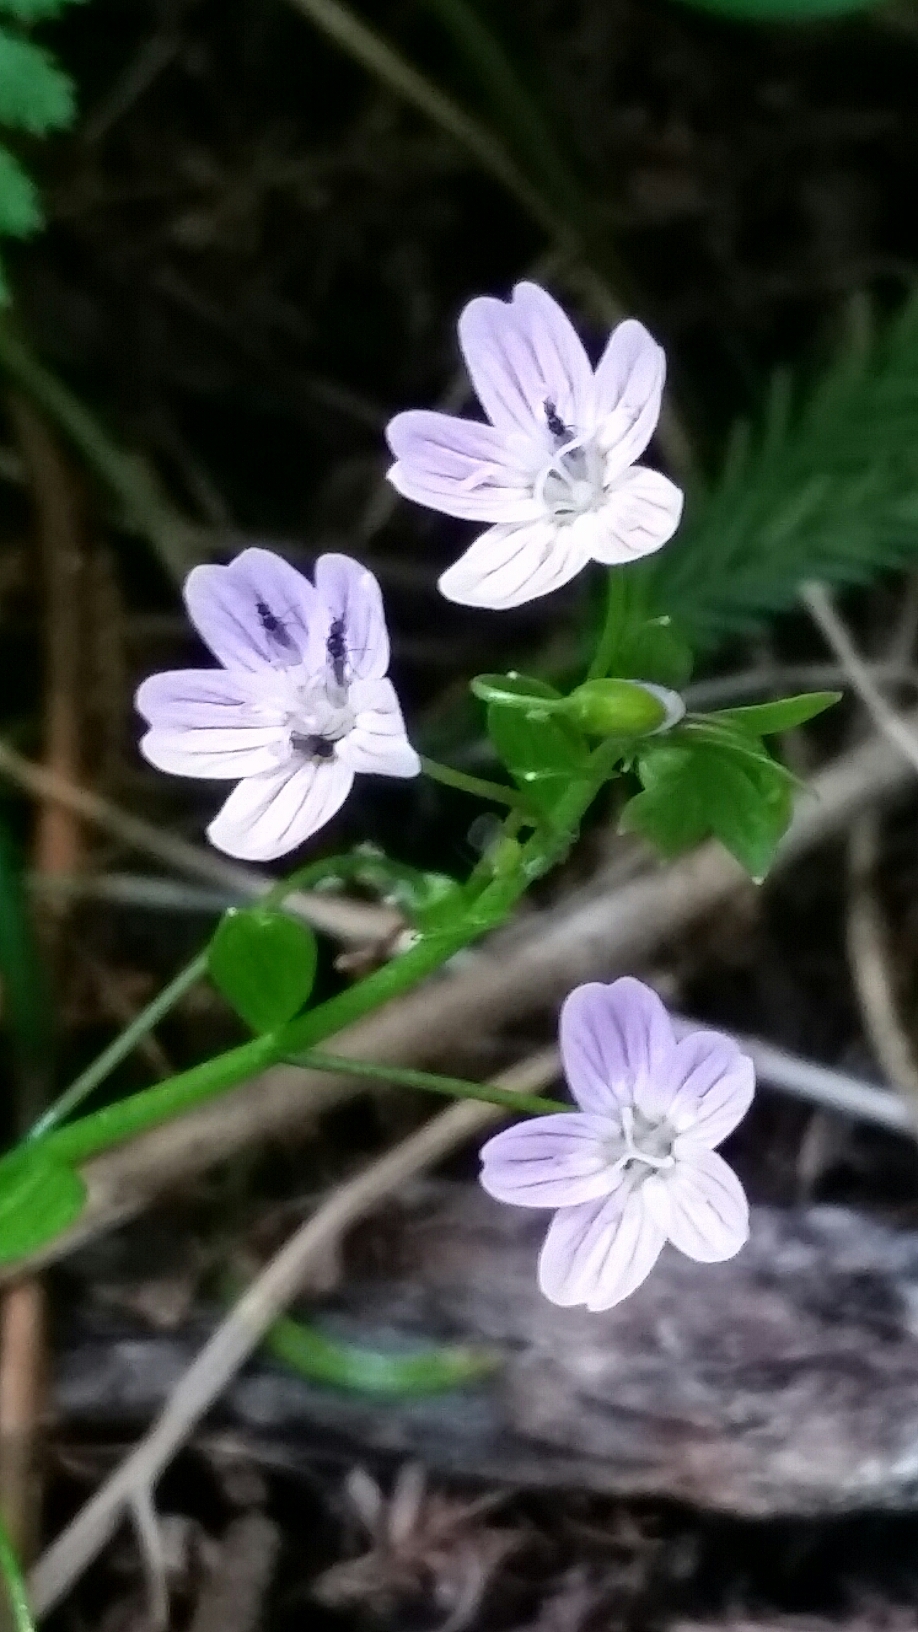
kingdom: Plantae
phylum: Tracheophyta
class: Magnoliopsida
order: Caryophyllales
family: Montiaceae
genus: Claytonia
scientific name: Claytonia sibirica
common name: Pink purslane
